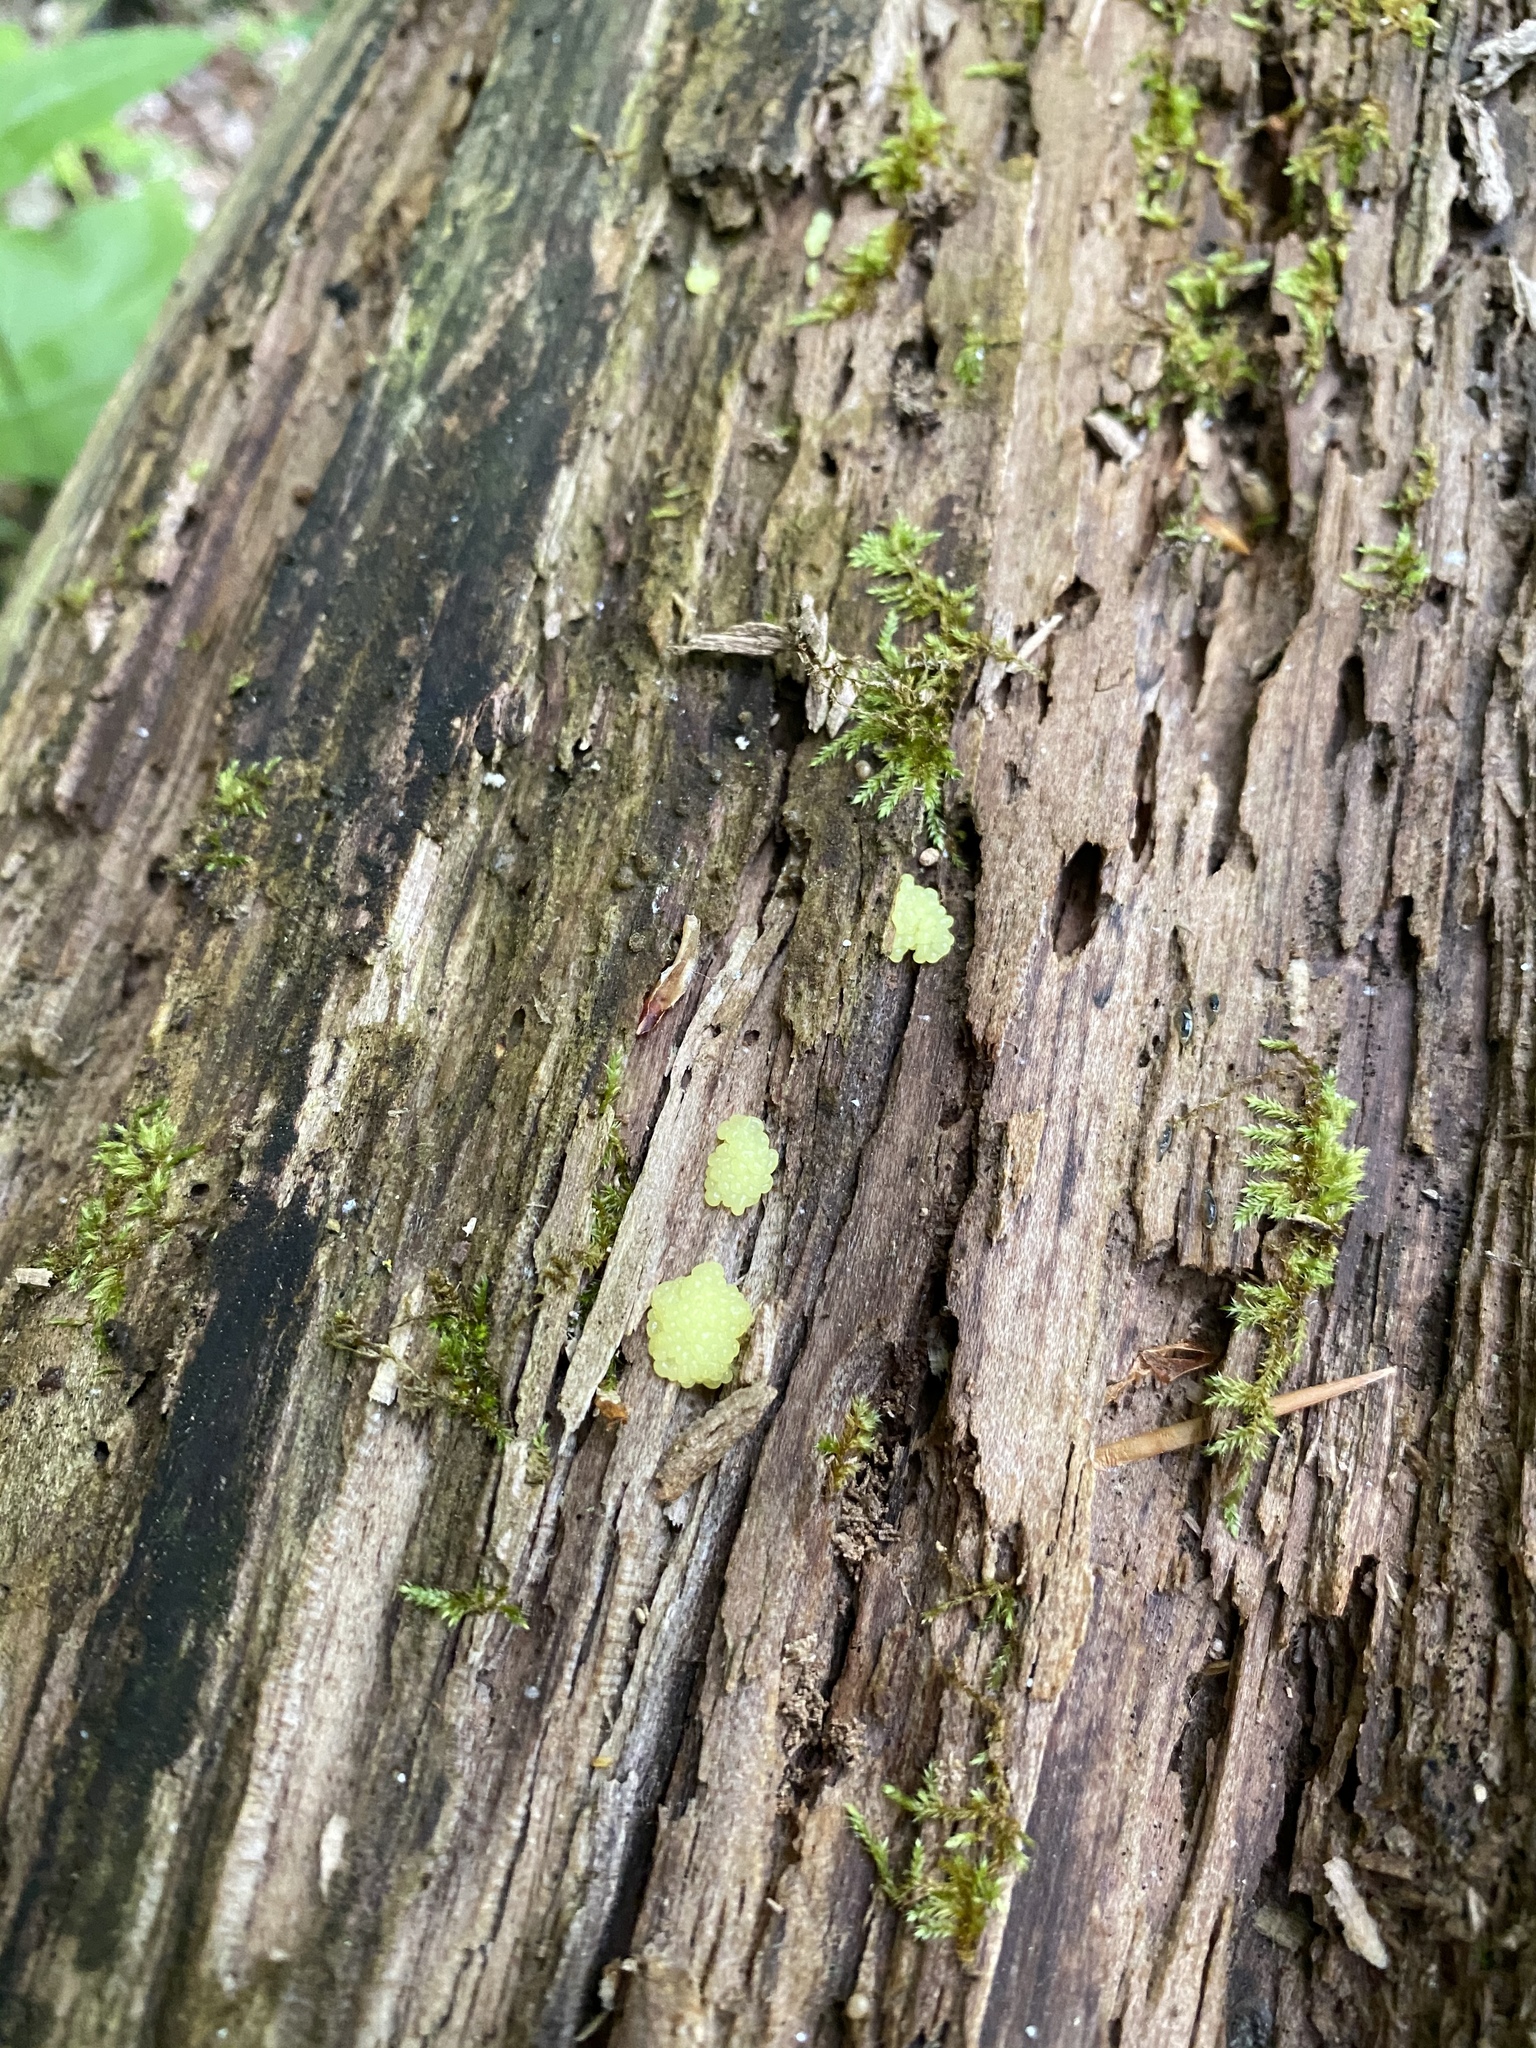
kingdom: Protozoa
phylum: Mycetozoa
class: Myxomycetes
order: Stemonitidales
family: Stemonitidaceae
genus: Stemonitis
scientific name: Stemonitis
